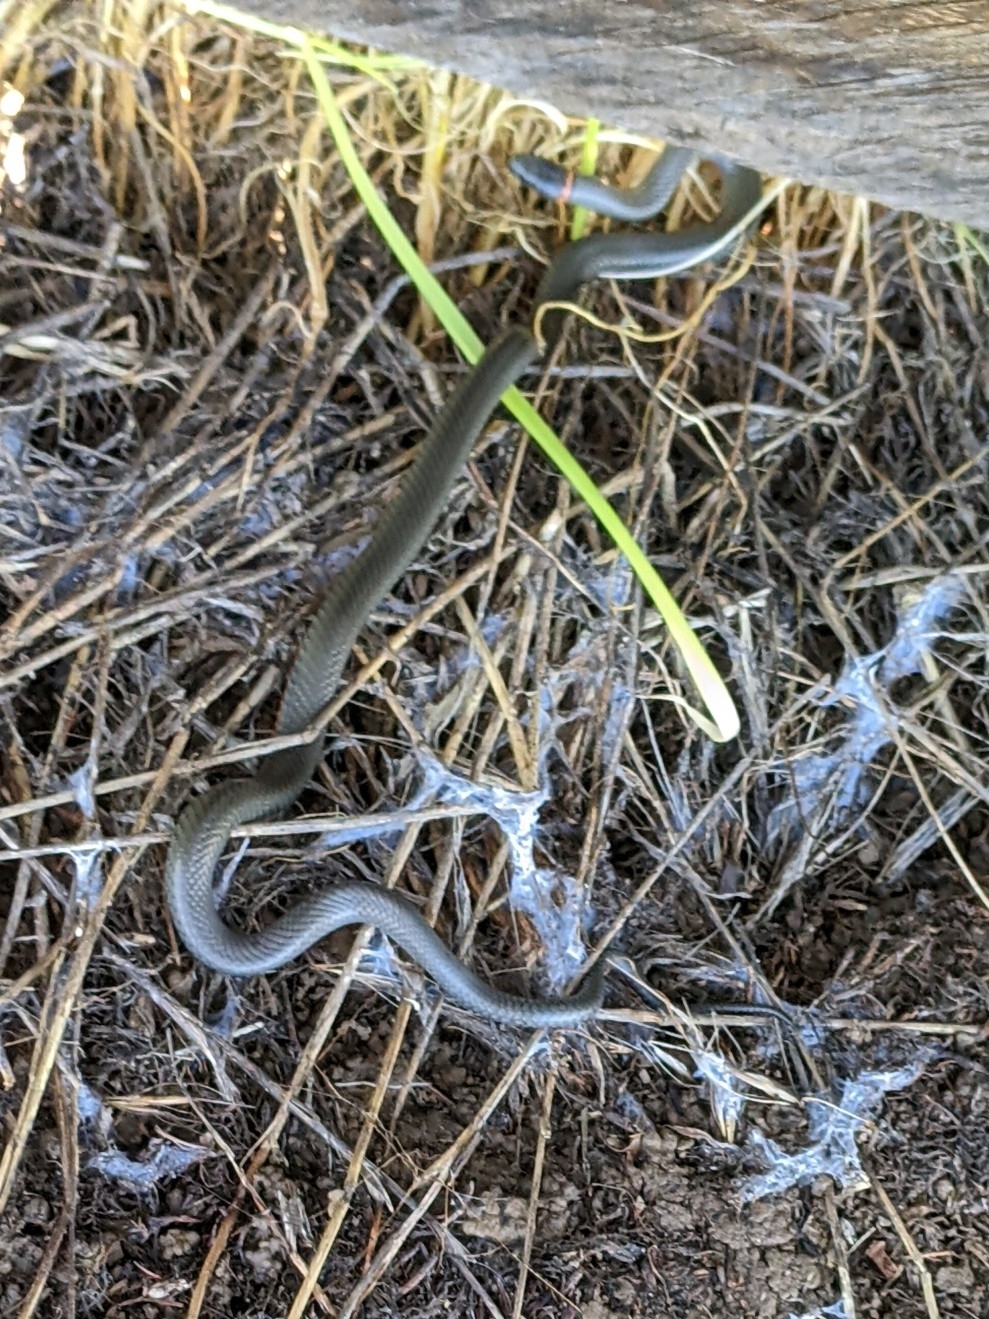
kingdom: Animalia
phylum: Chordata
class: Squamata
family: Colubridae
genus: Diadophis
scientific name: Diadophis punctatus
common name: Ringneck snake
